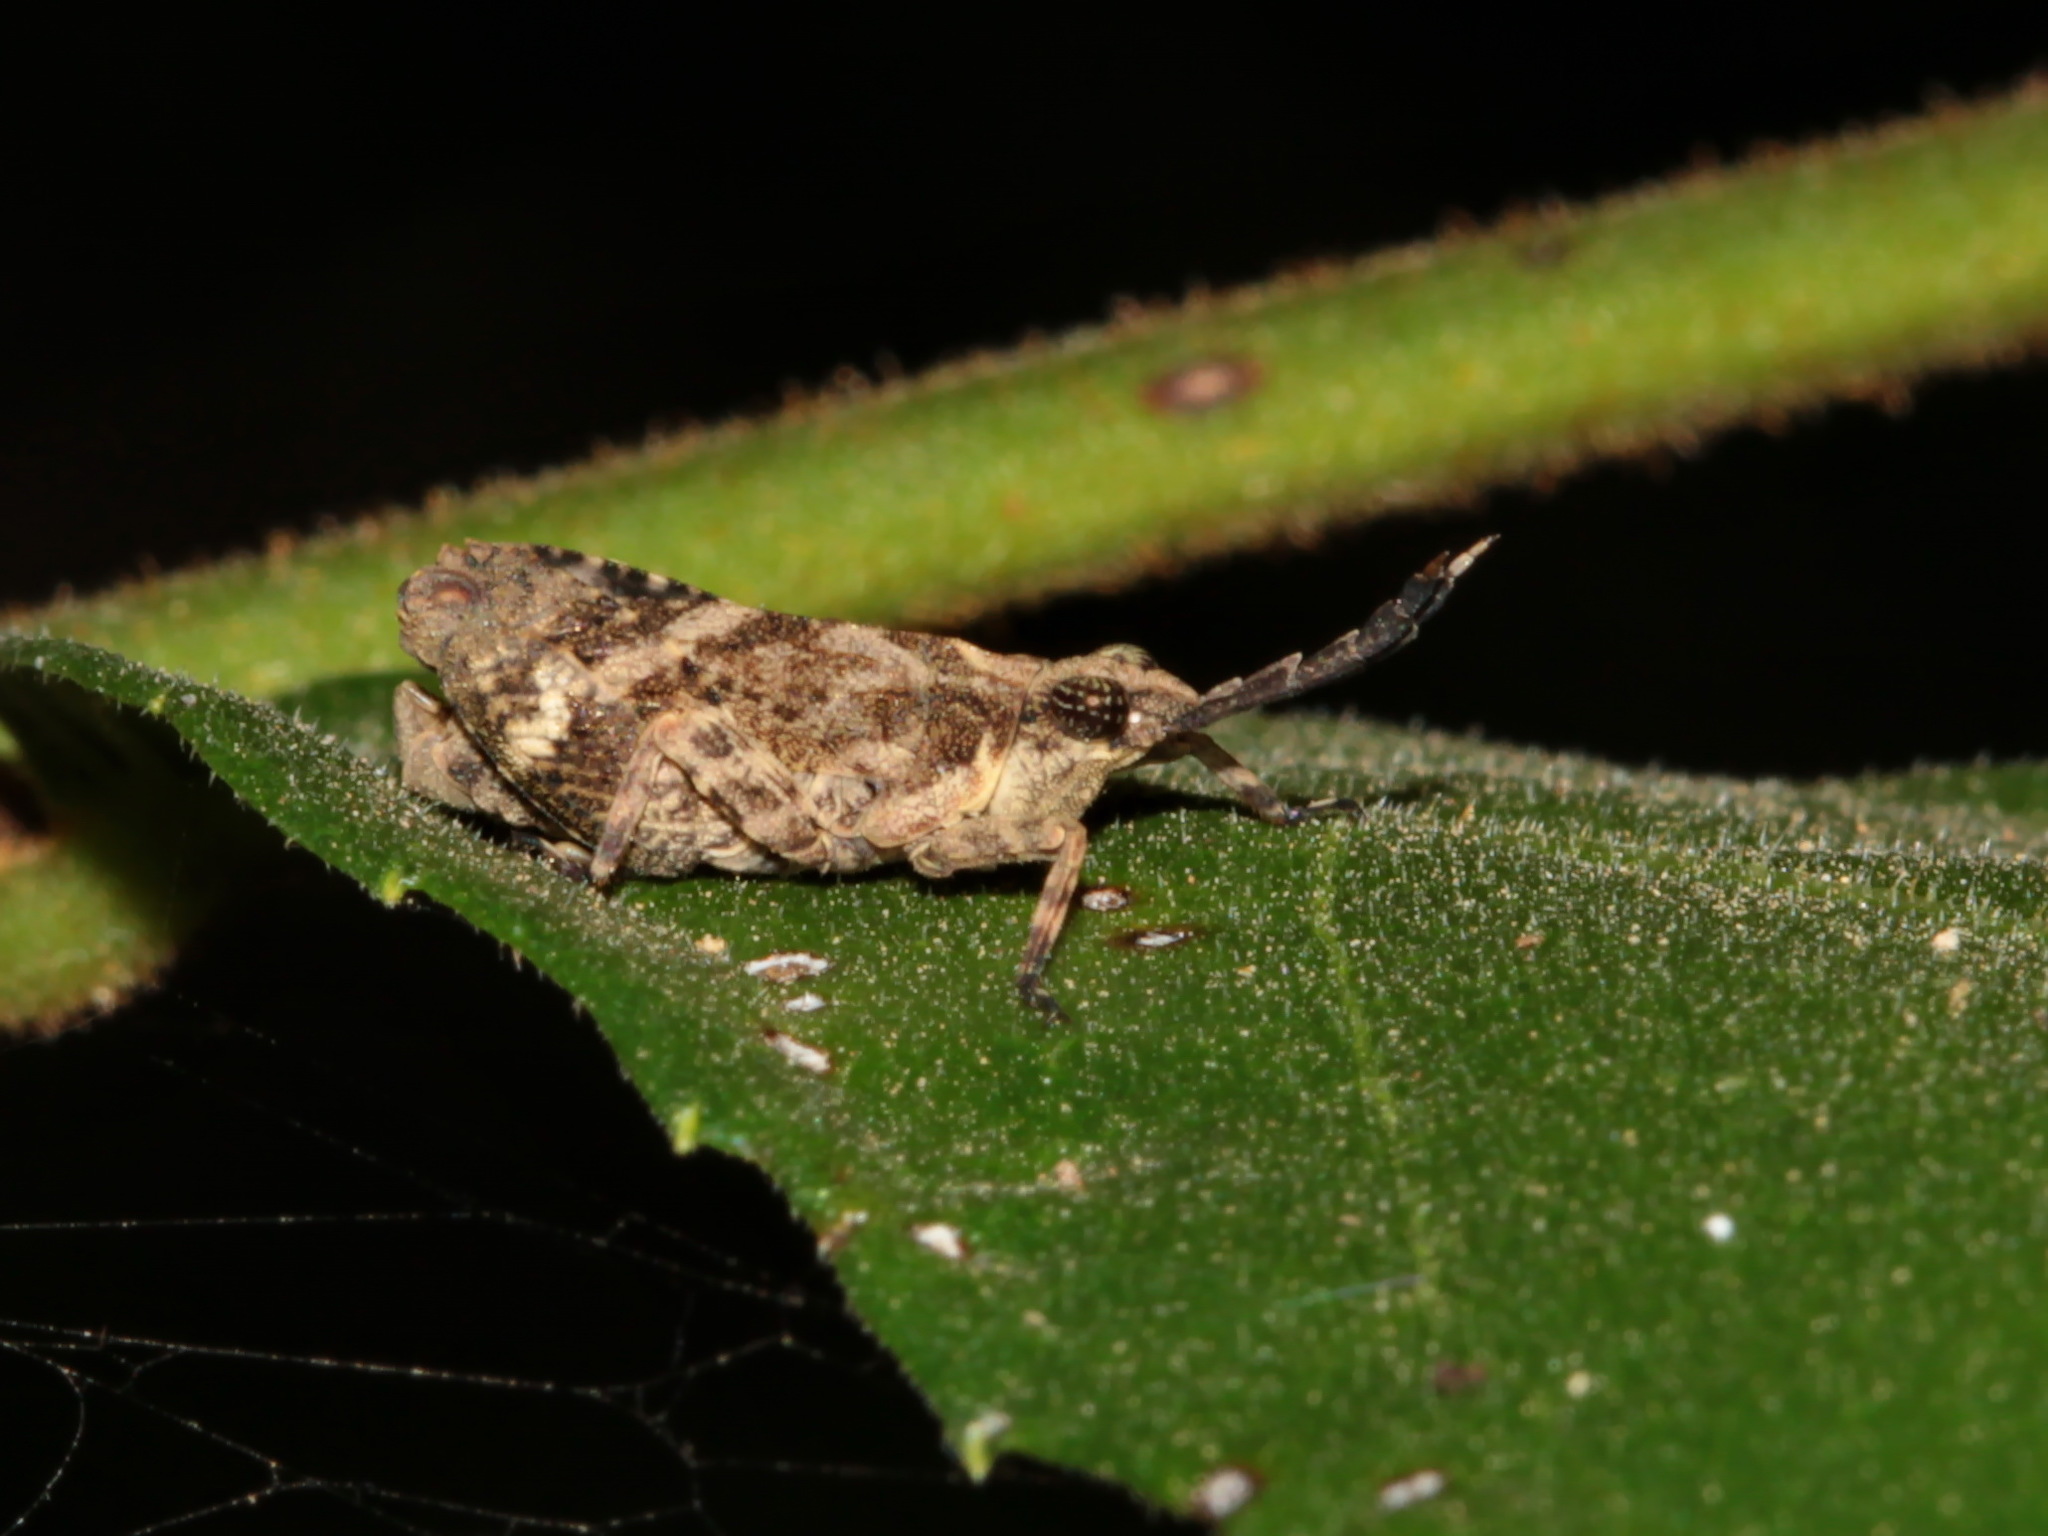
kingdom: Animalia
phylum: Arthropoda
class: Insecta
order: Orthoptera
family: Tetrigidae
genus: Clinophaestus
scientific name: Clinophaestus robustus
